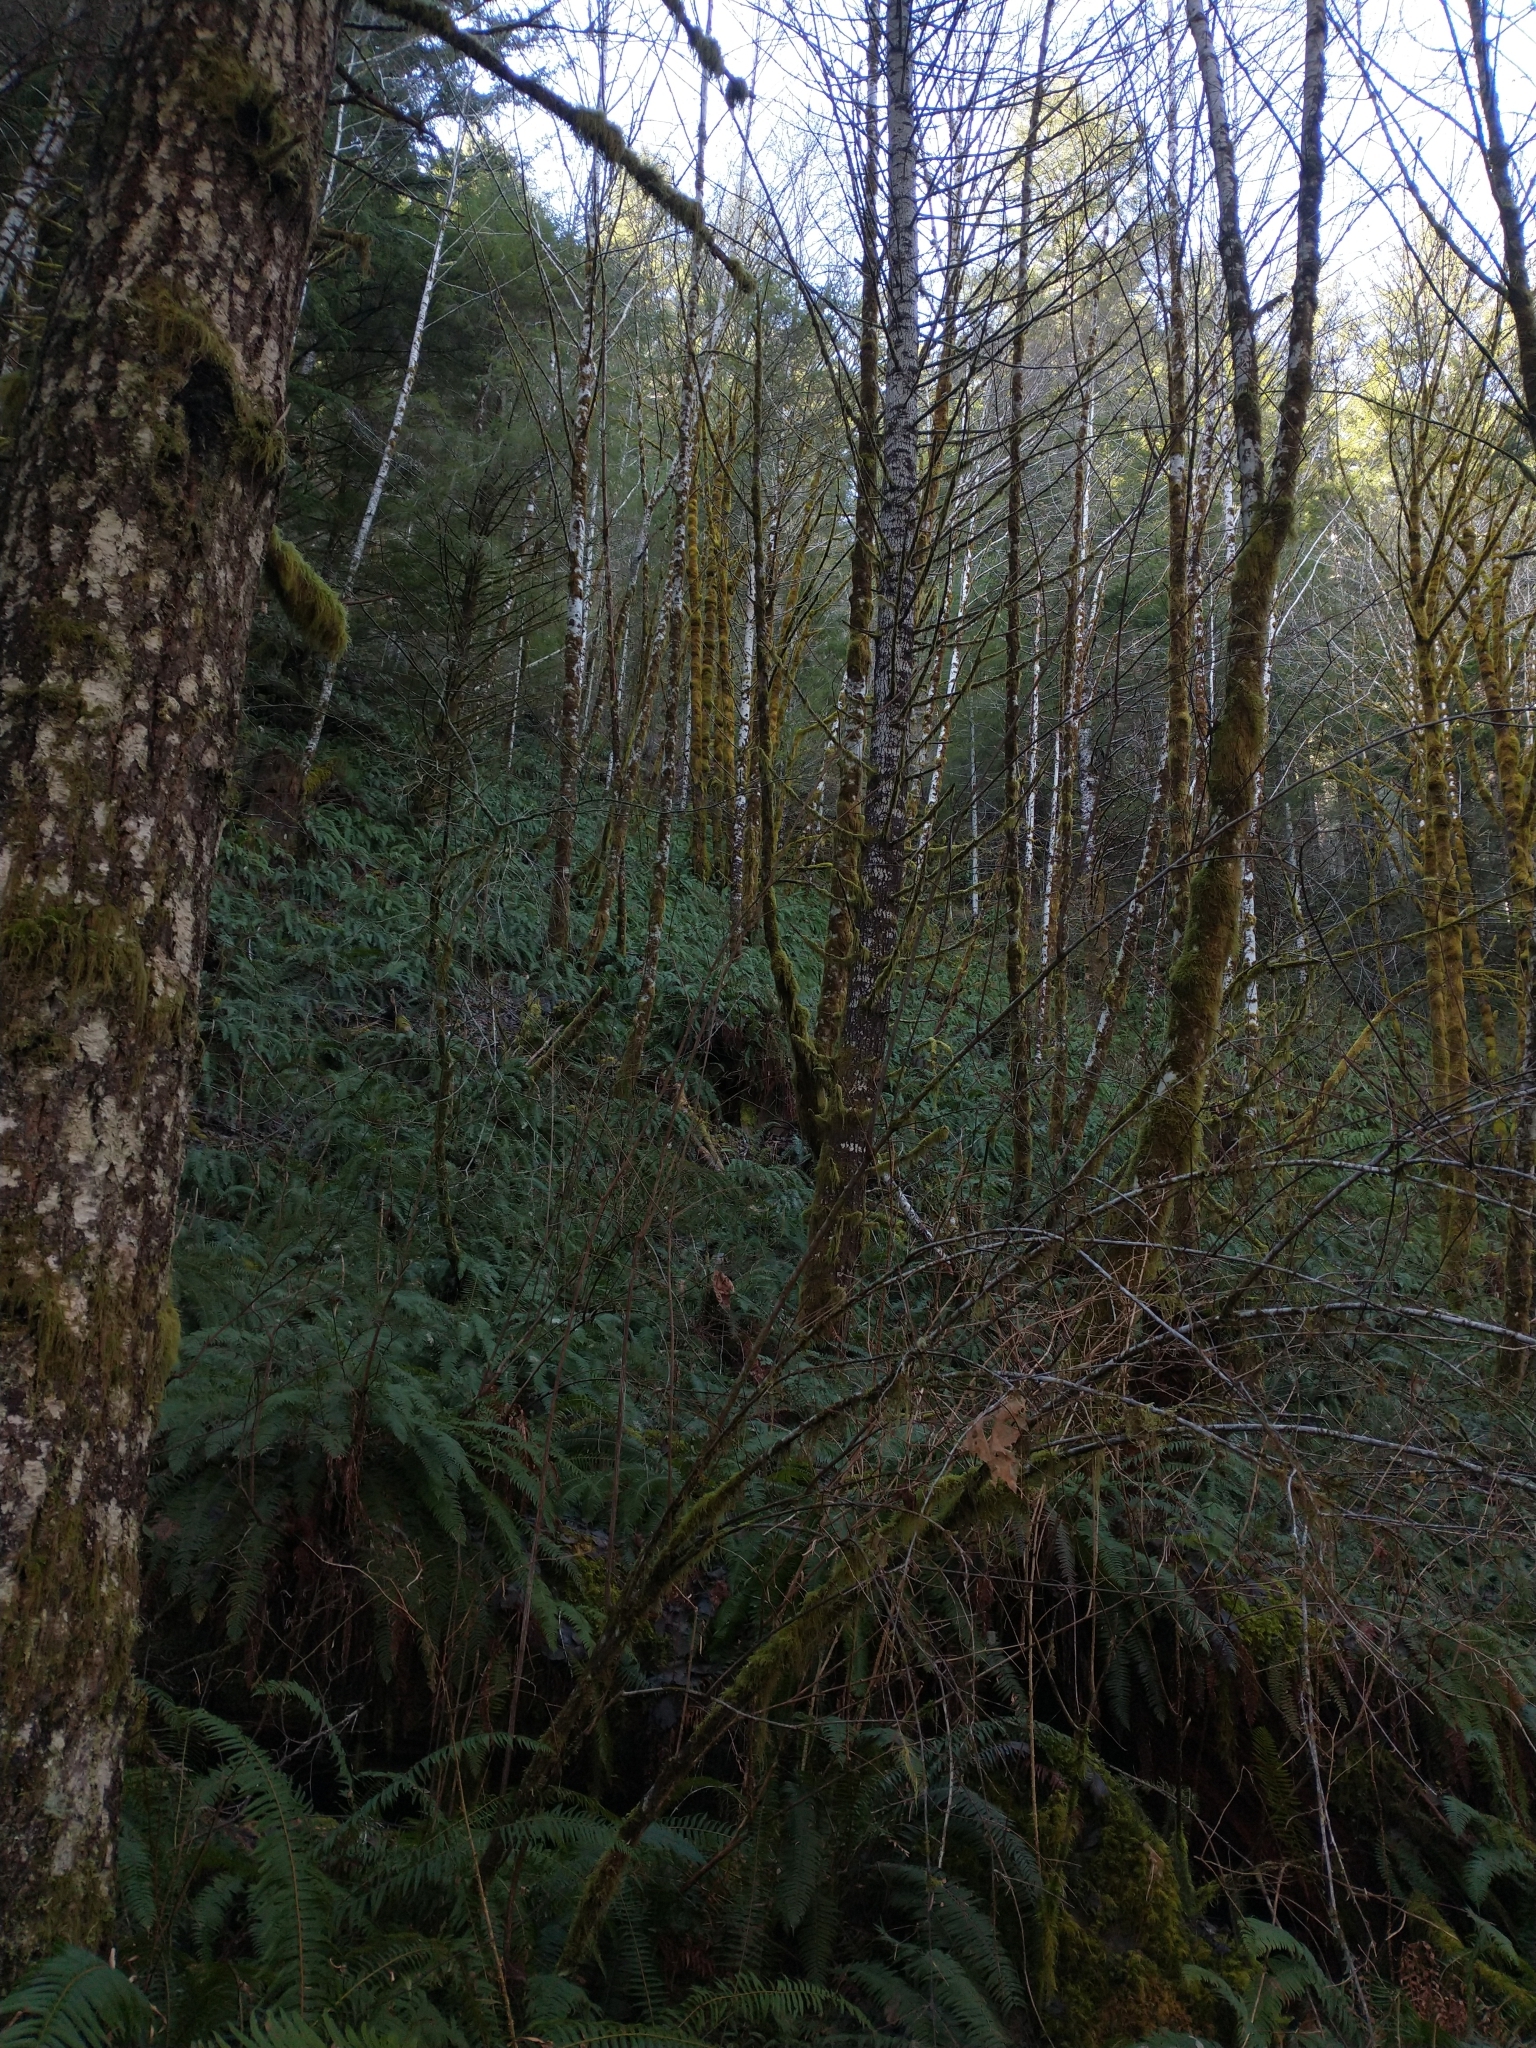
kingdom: Plantae
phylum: Tracheophyta
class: Magnoliopsida
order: Fagales
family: Betulaceae
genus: Alnus
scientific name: Alnus rubra
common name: Red alder
